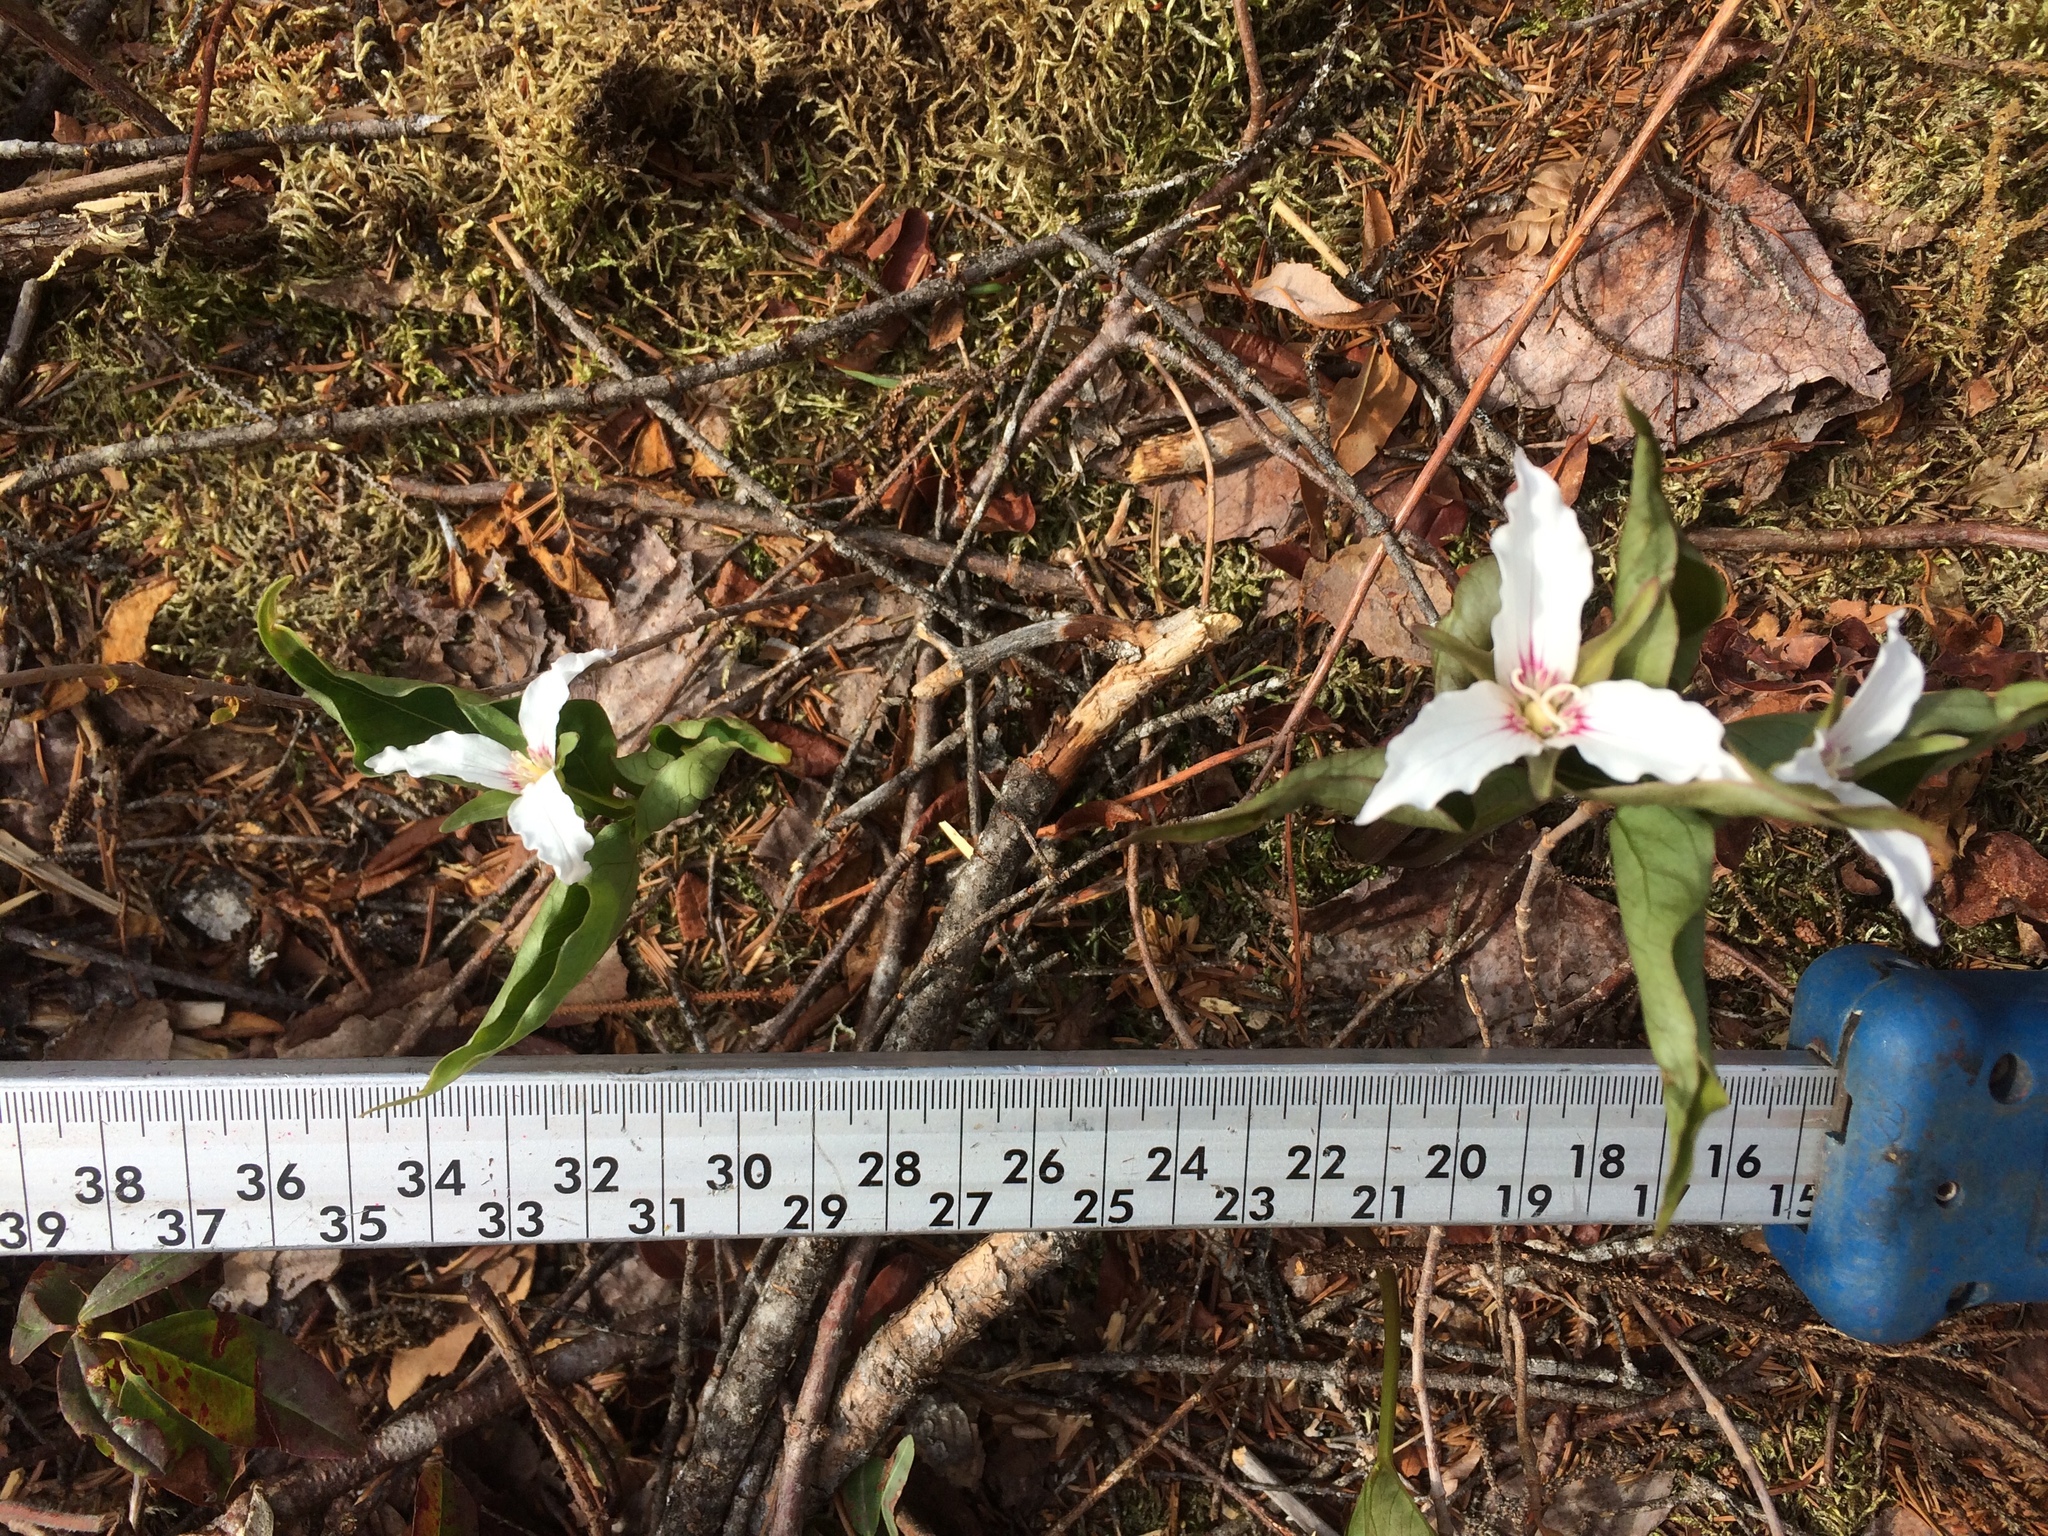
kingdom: Plantae
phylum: Tracheophyta
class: Liliopsida
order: Liliales
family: Melanthiaceae
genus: Trillium
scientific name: Trillium undulatum
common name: Paint trillium
